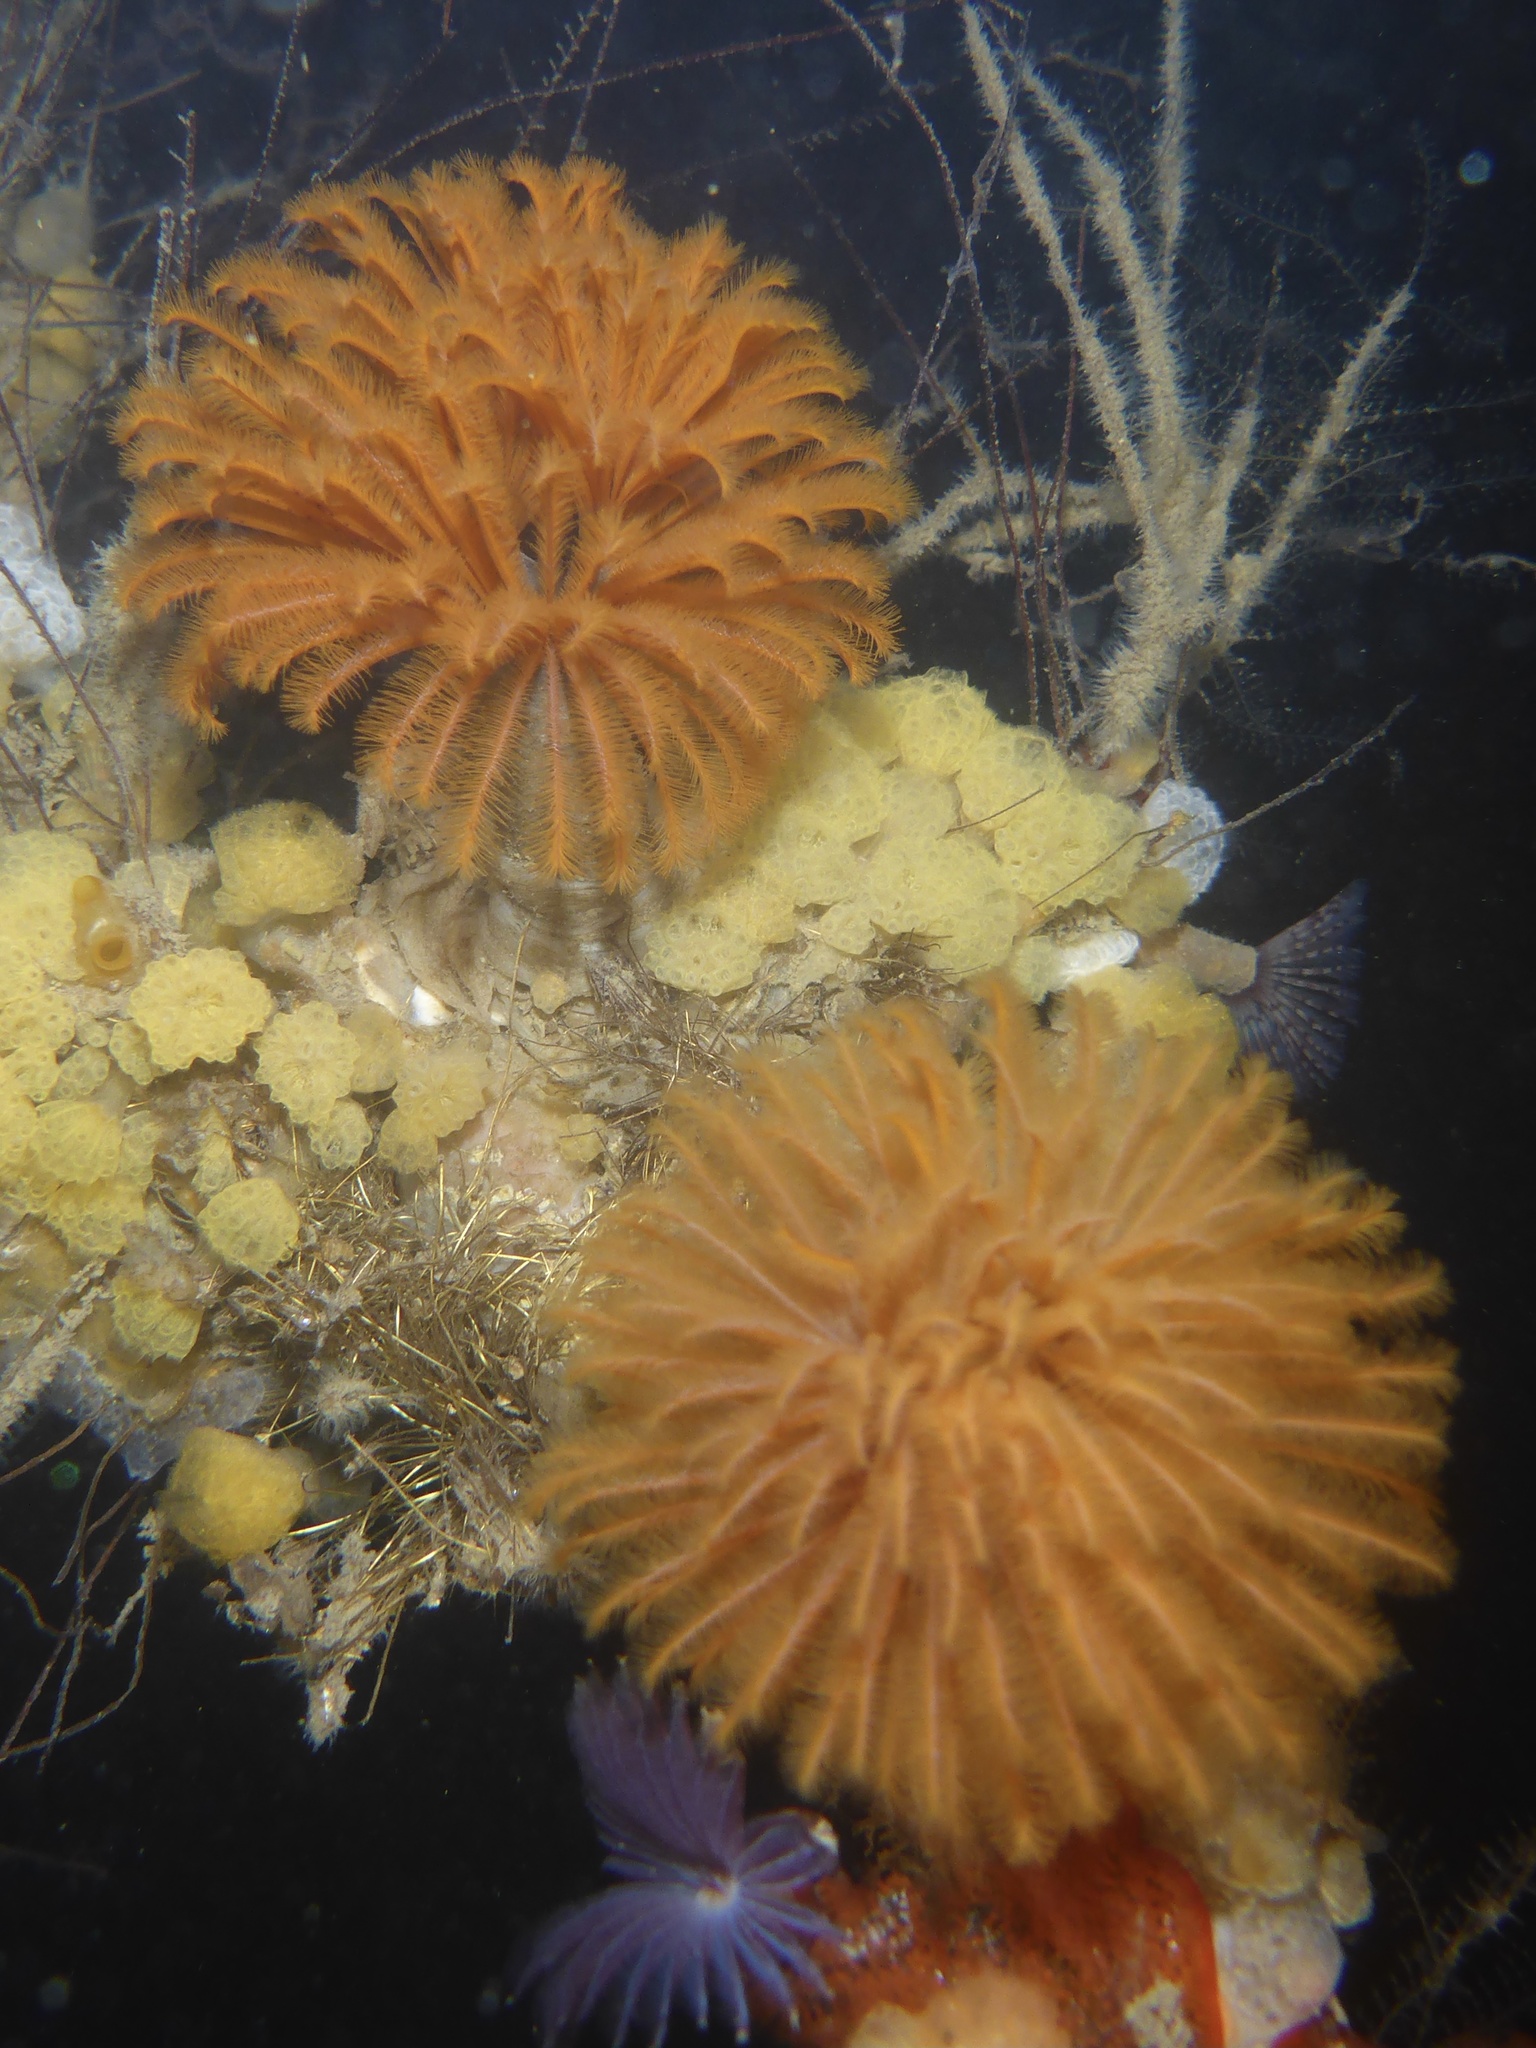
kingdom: Animalia
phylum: Annelida
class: Polychaeta
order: Sabellida
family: Sabellidae
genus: Eudistylia
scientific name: Eudistylia polymorpha
